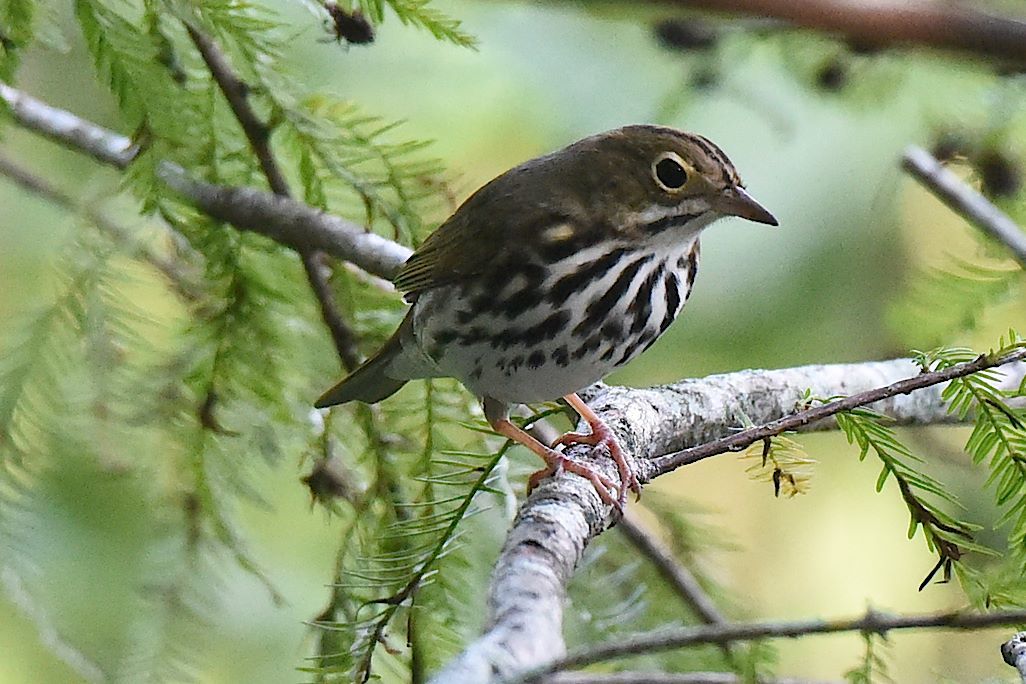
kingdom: Animalia
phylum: Chordata
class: Aves
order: Passeriformes
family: Parulidae
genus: Seiurus
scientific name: Seiurus aurocapilla
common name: Ovenbird
